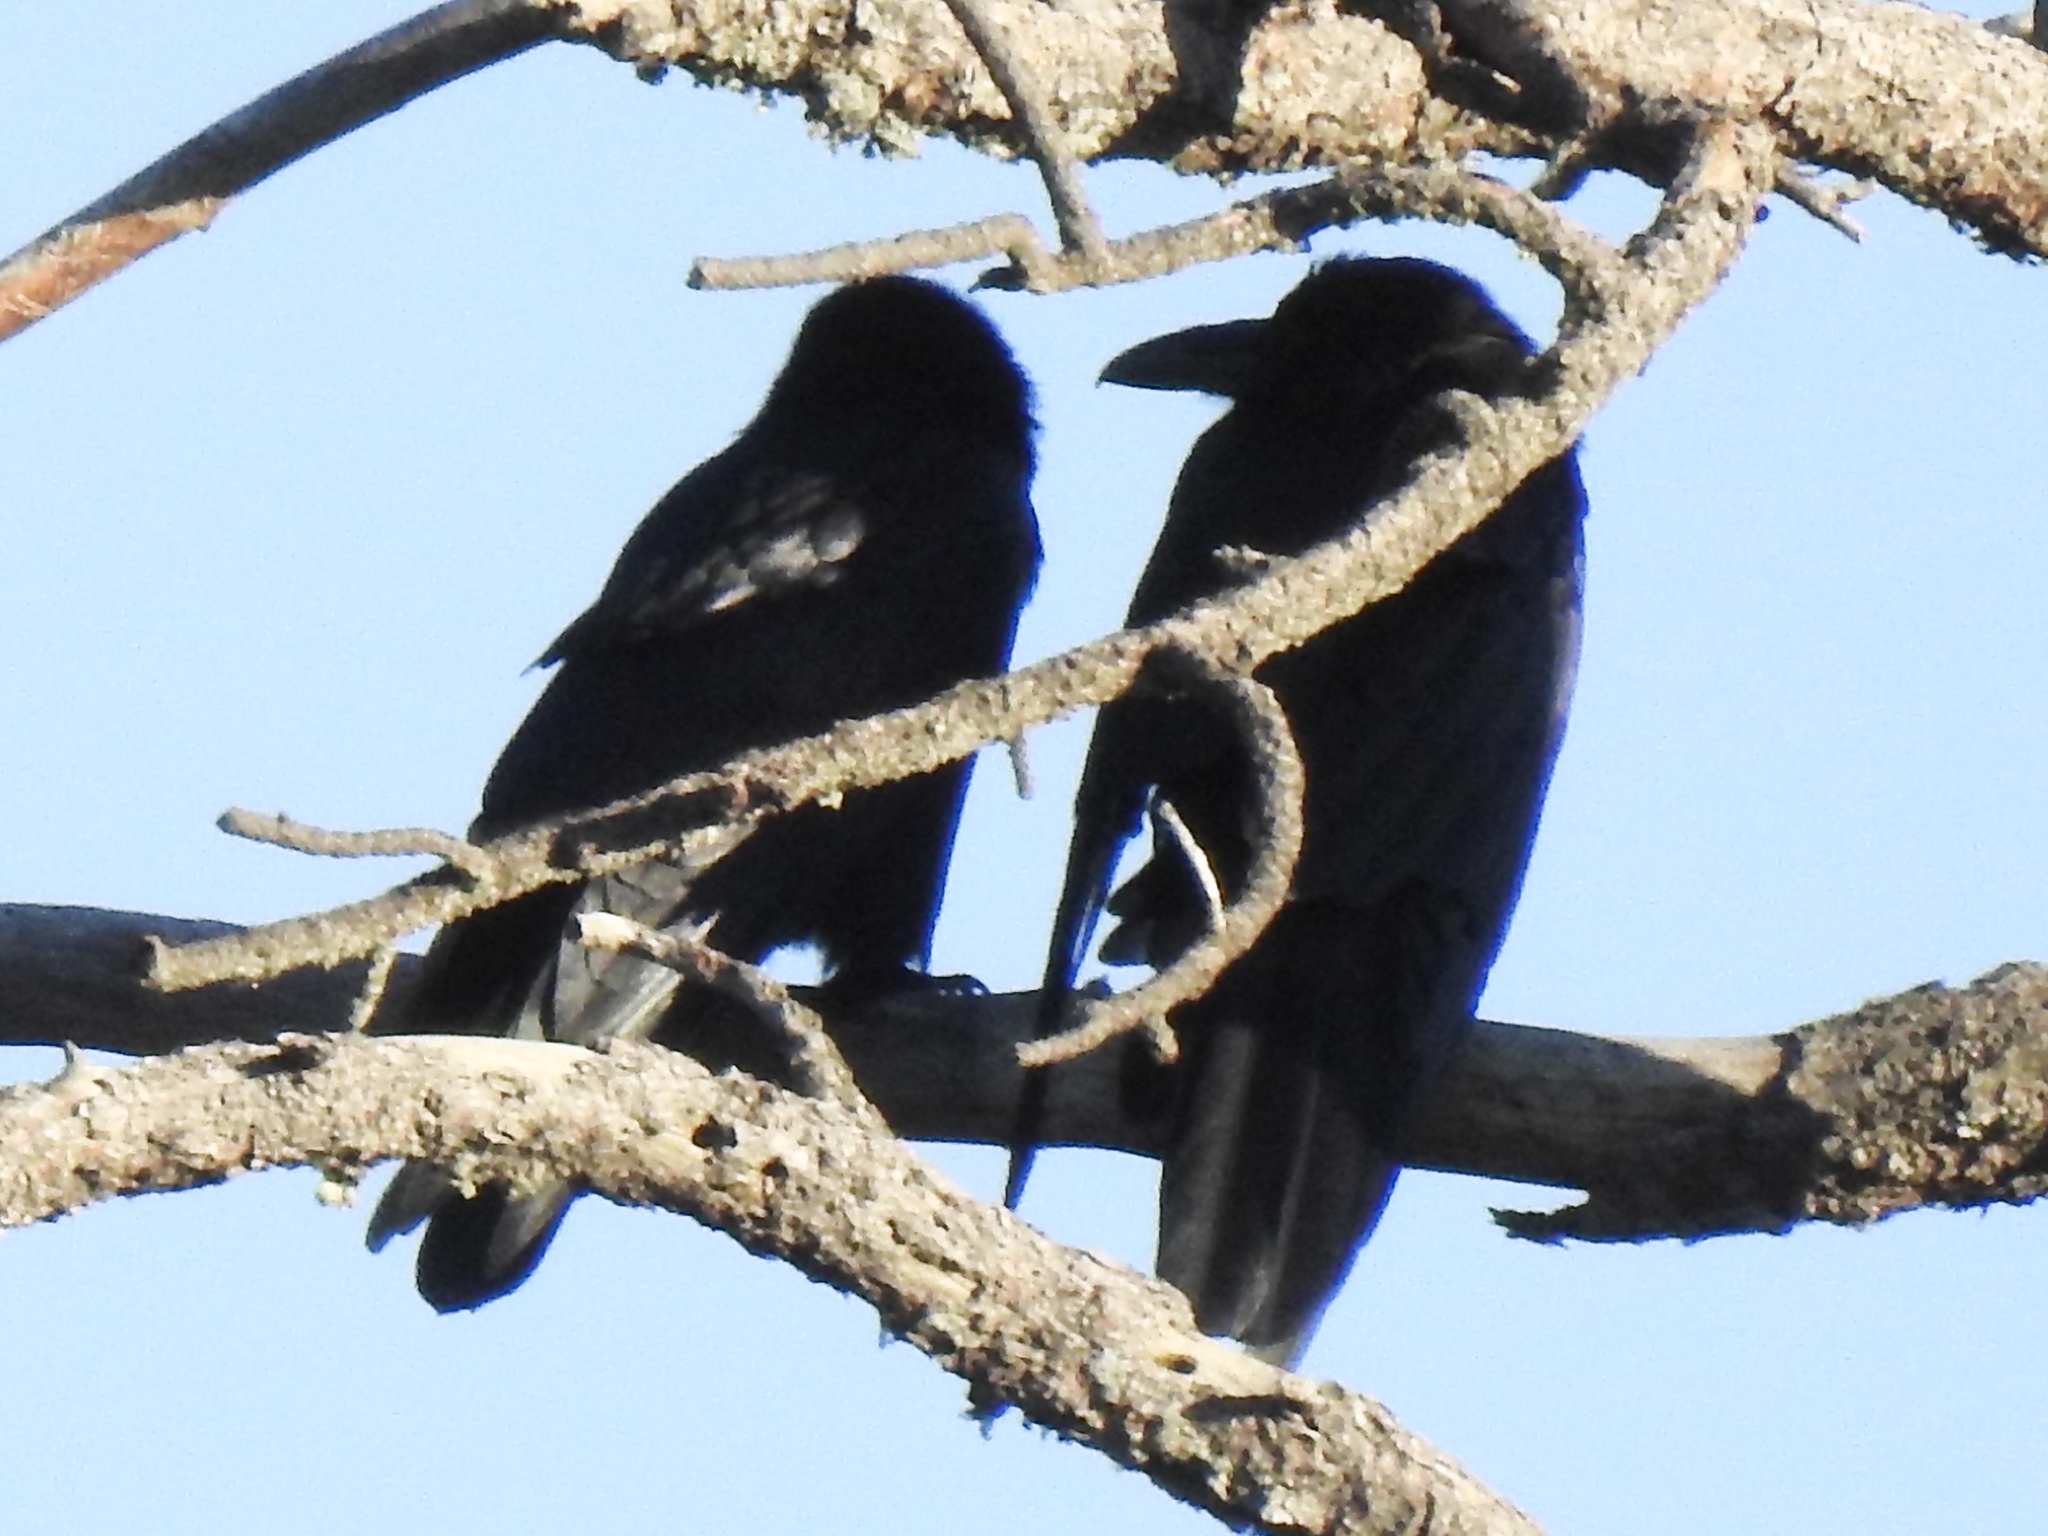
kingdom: Animalia
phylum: Chordata
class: Aves
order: Passeriformes
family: Corvidae
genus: Corvus
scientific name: Corvus corax
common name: Common raven
